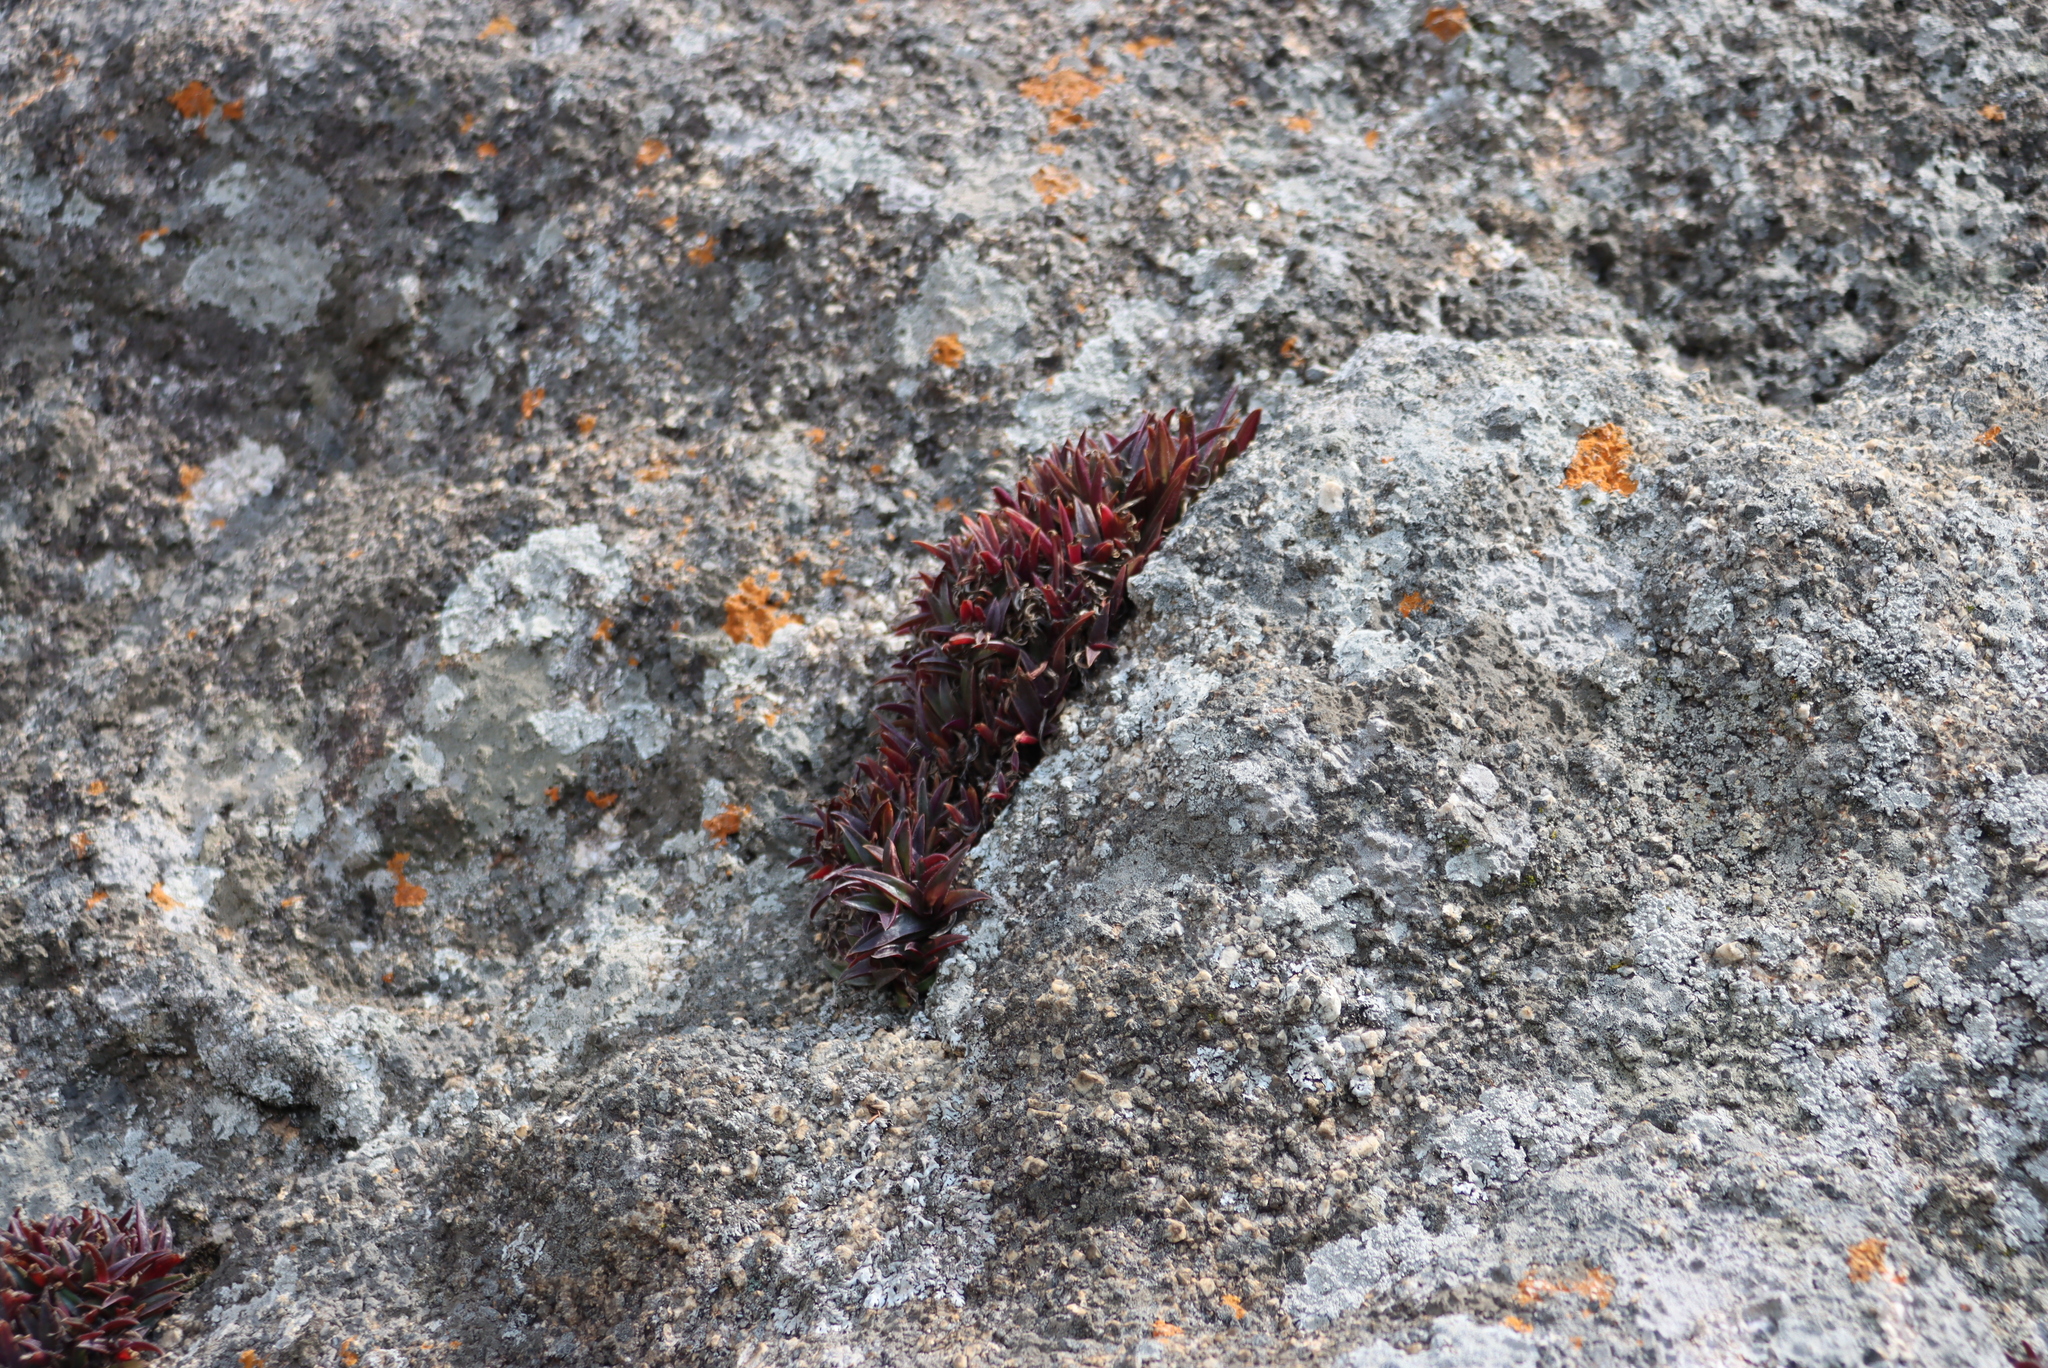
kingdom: Plantae
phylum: Tracheophyta
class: Liliopsida
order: Commelinales
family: Commelinaceae
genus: Cyanotis
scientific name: Cyanotis lapidosa
